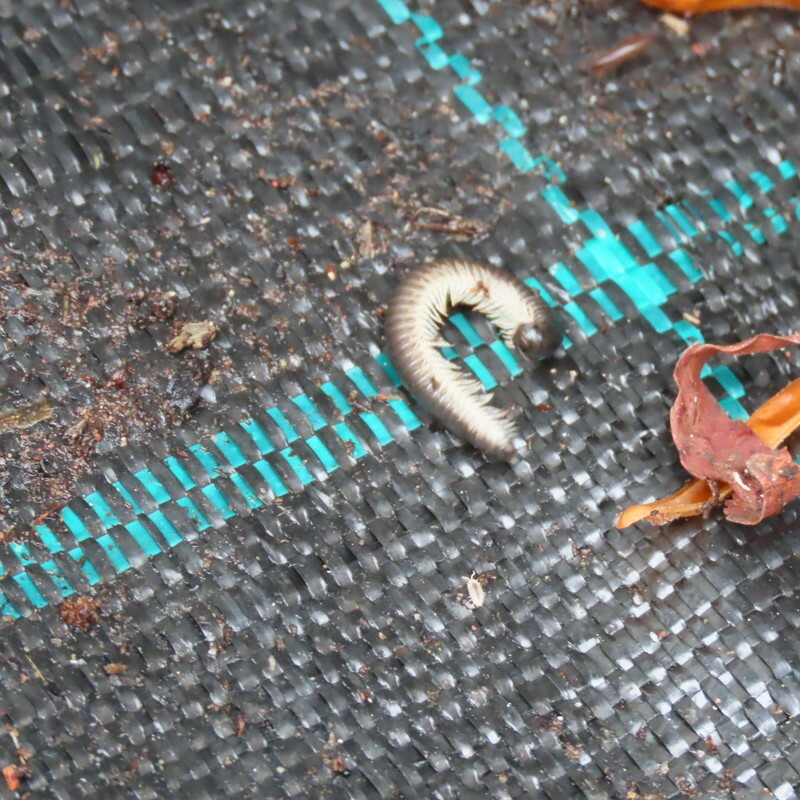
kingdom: Animalia
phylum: Arthropoda
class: Diplopoda
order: Julida
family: Julidae
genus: Ommatoiulus
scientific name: Ommatoiulus moreleti
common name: Portuguese millipede
